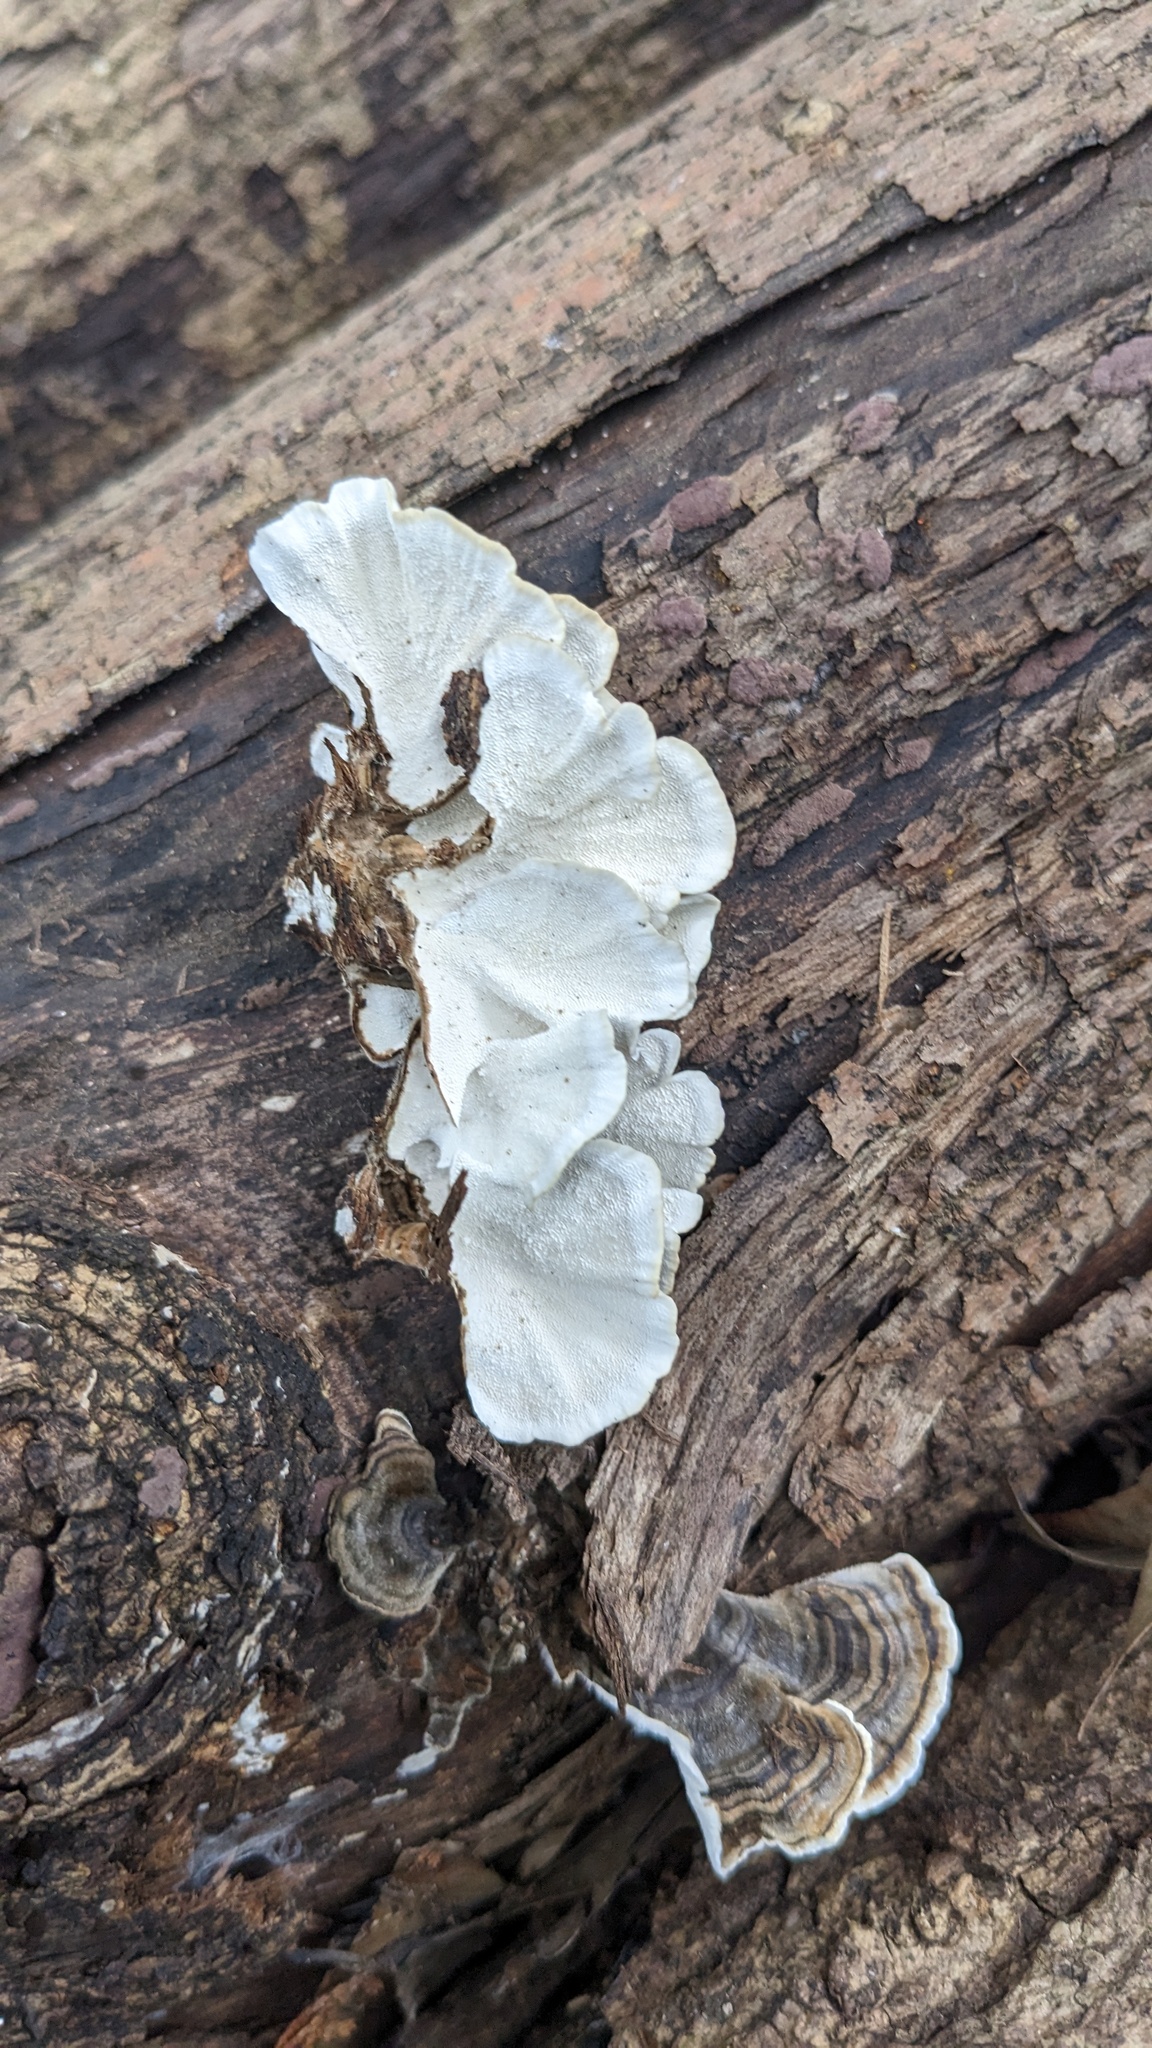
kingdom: Fungi
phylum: Basidiomycota
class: Agaricomycetes
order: Polyporales
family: Polyporaceae
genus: Trametes
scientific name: Trametes versicolor
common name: Turkeytail
